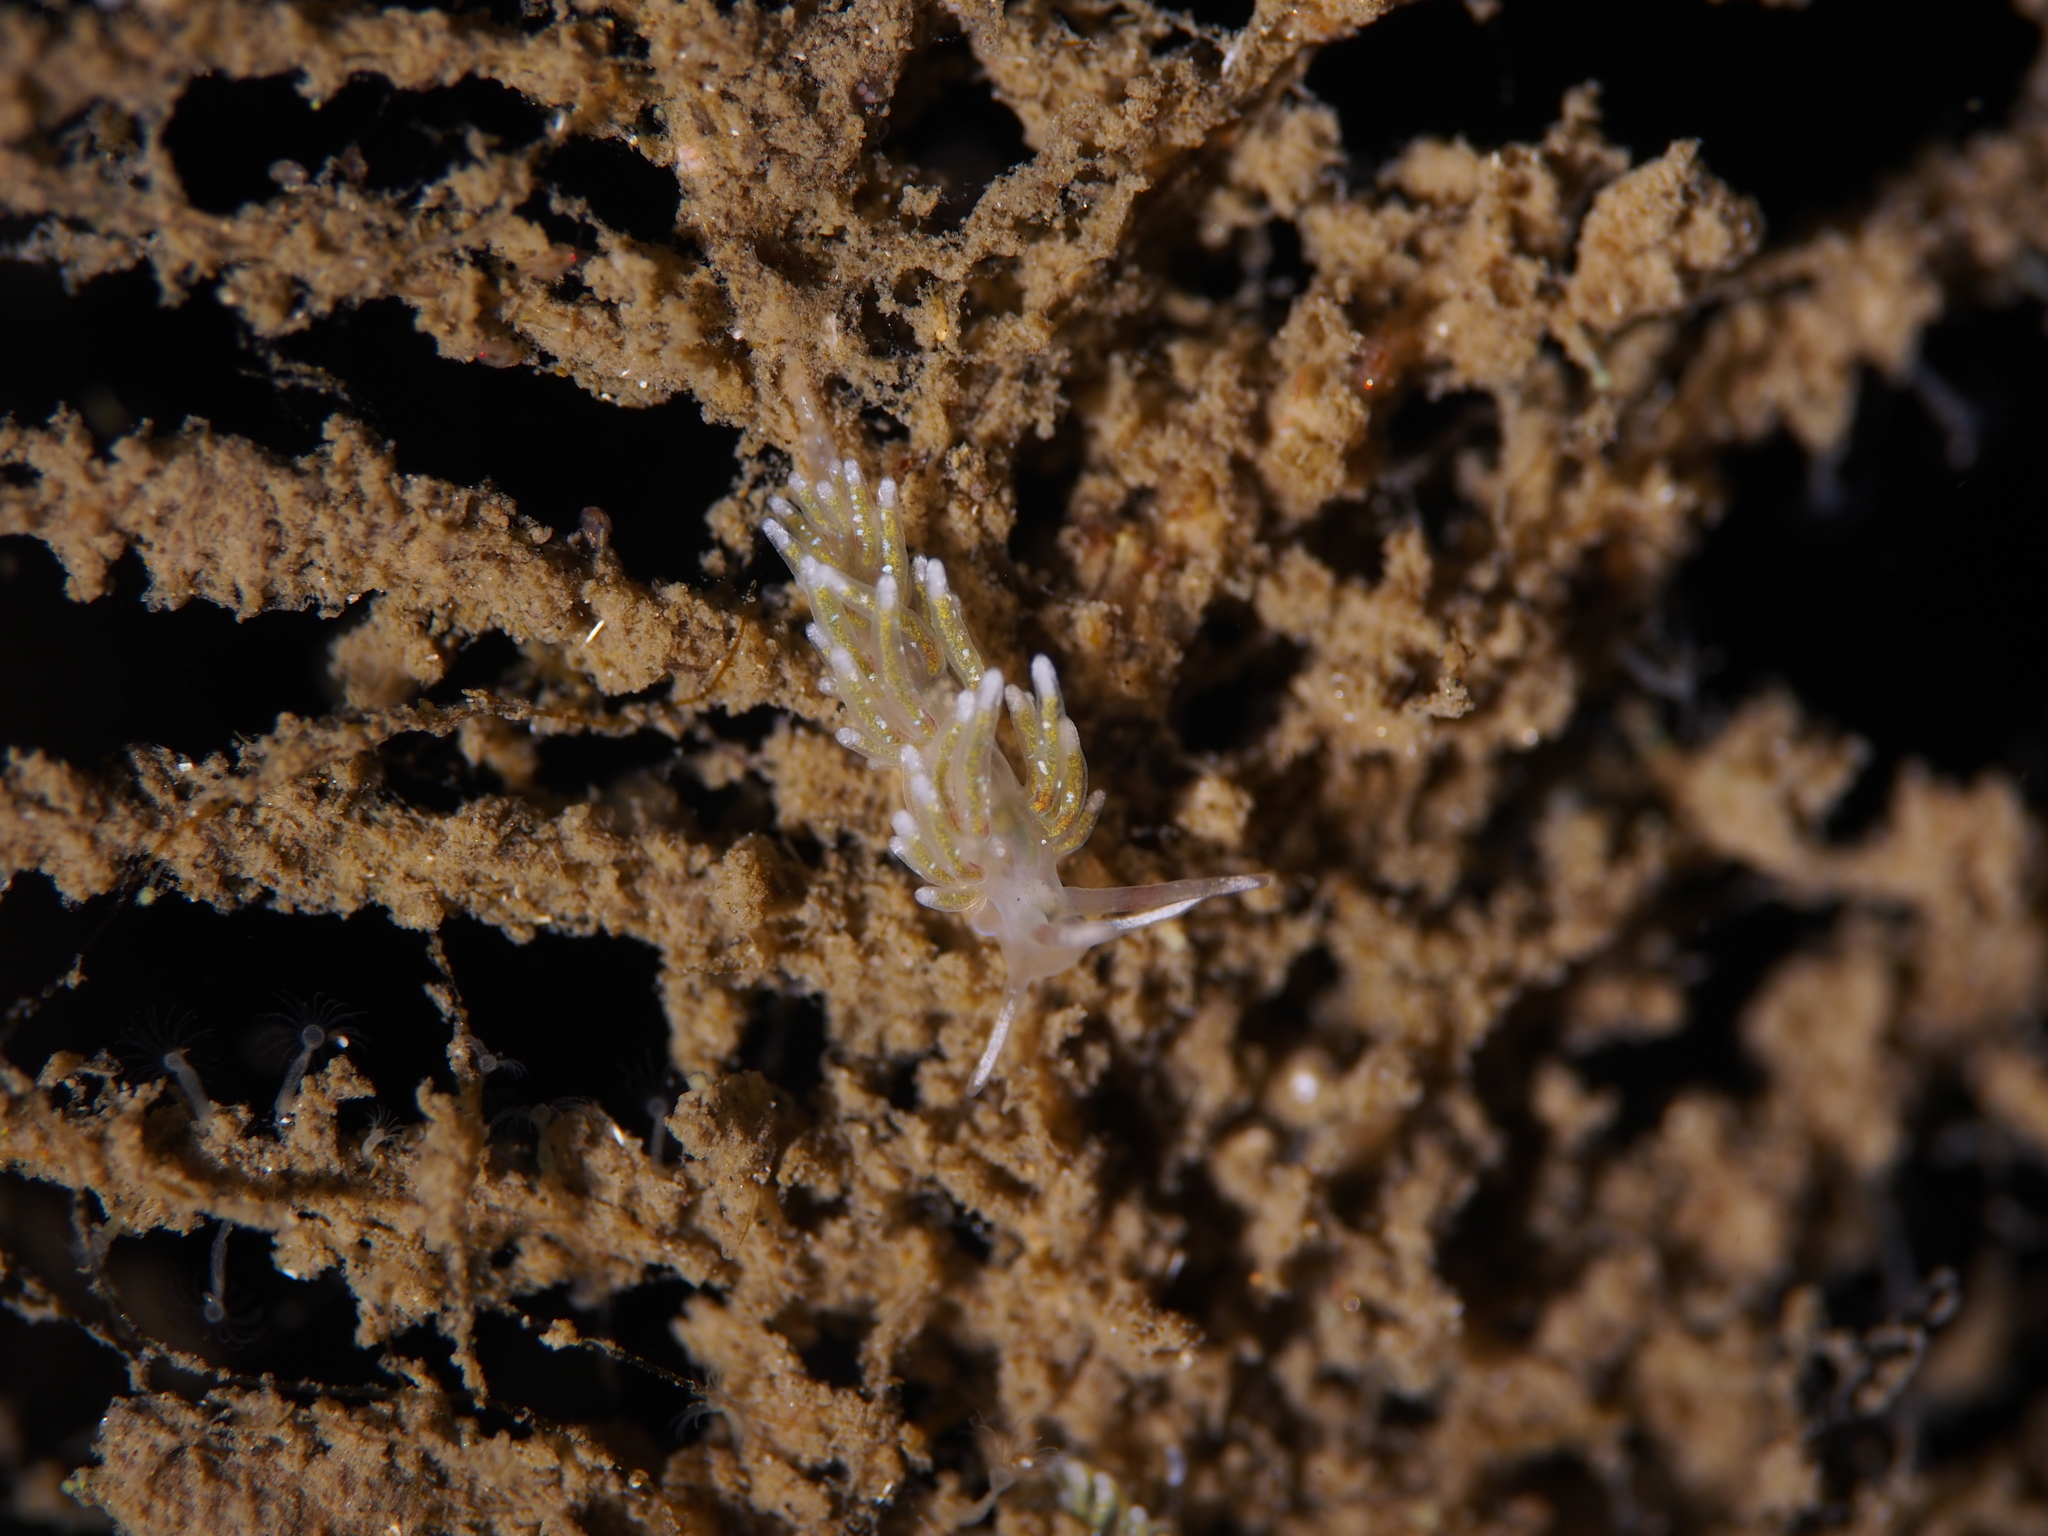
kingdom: Animalia
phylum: Mollusca
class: Gastropoda
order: Nudibranchia
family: Trinchesiidae
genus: Rubramoena
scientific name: Rubramoena rubescens
